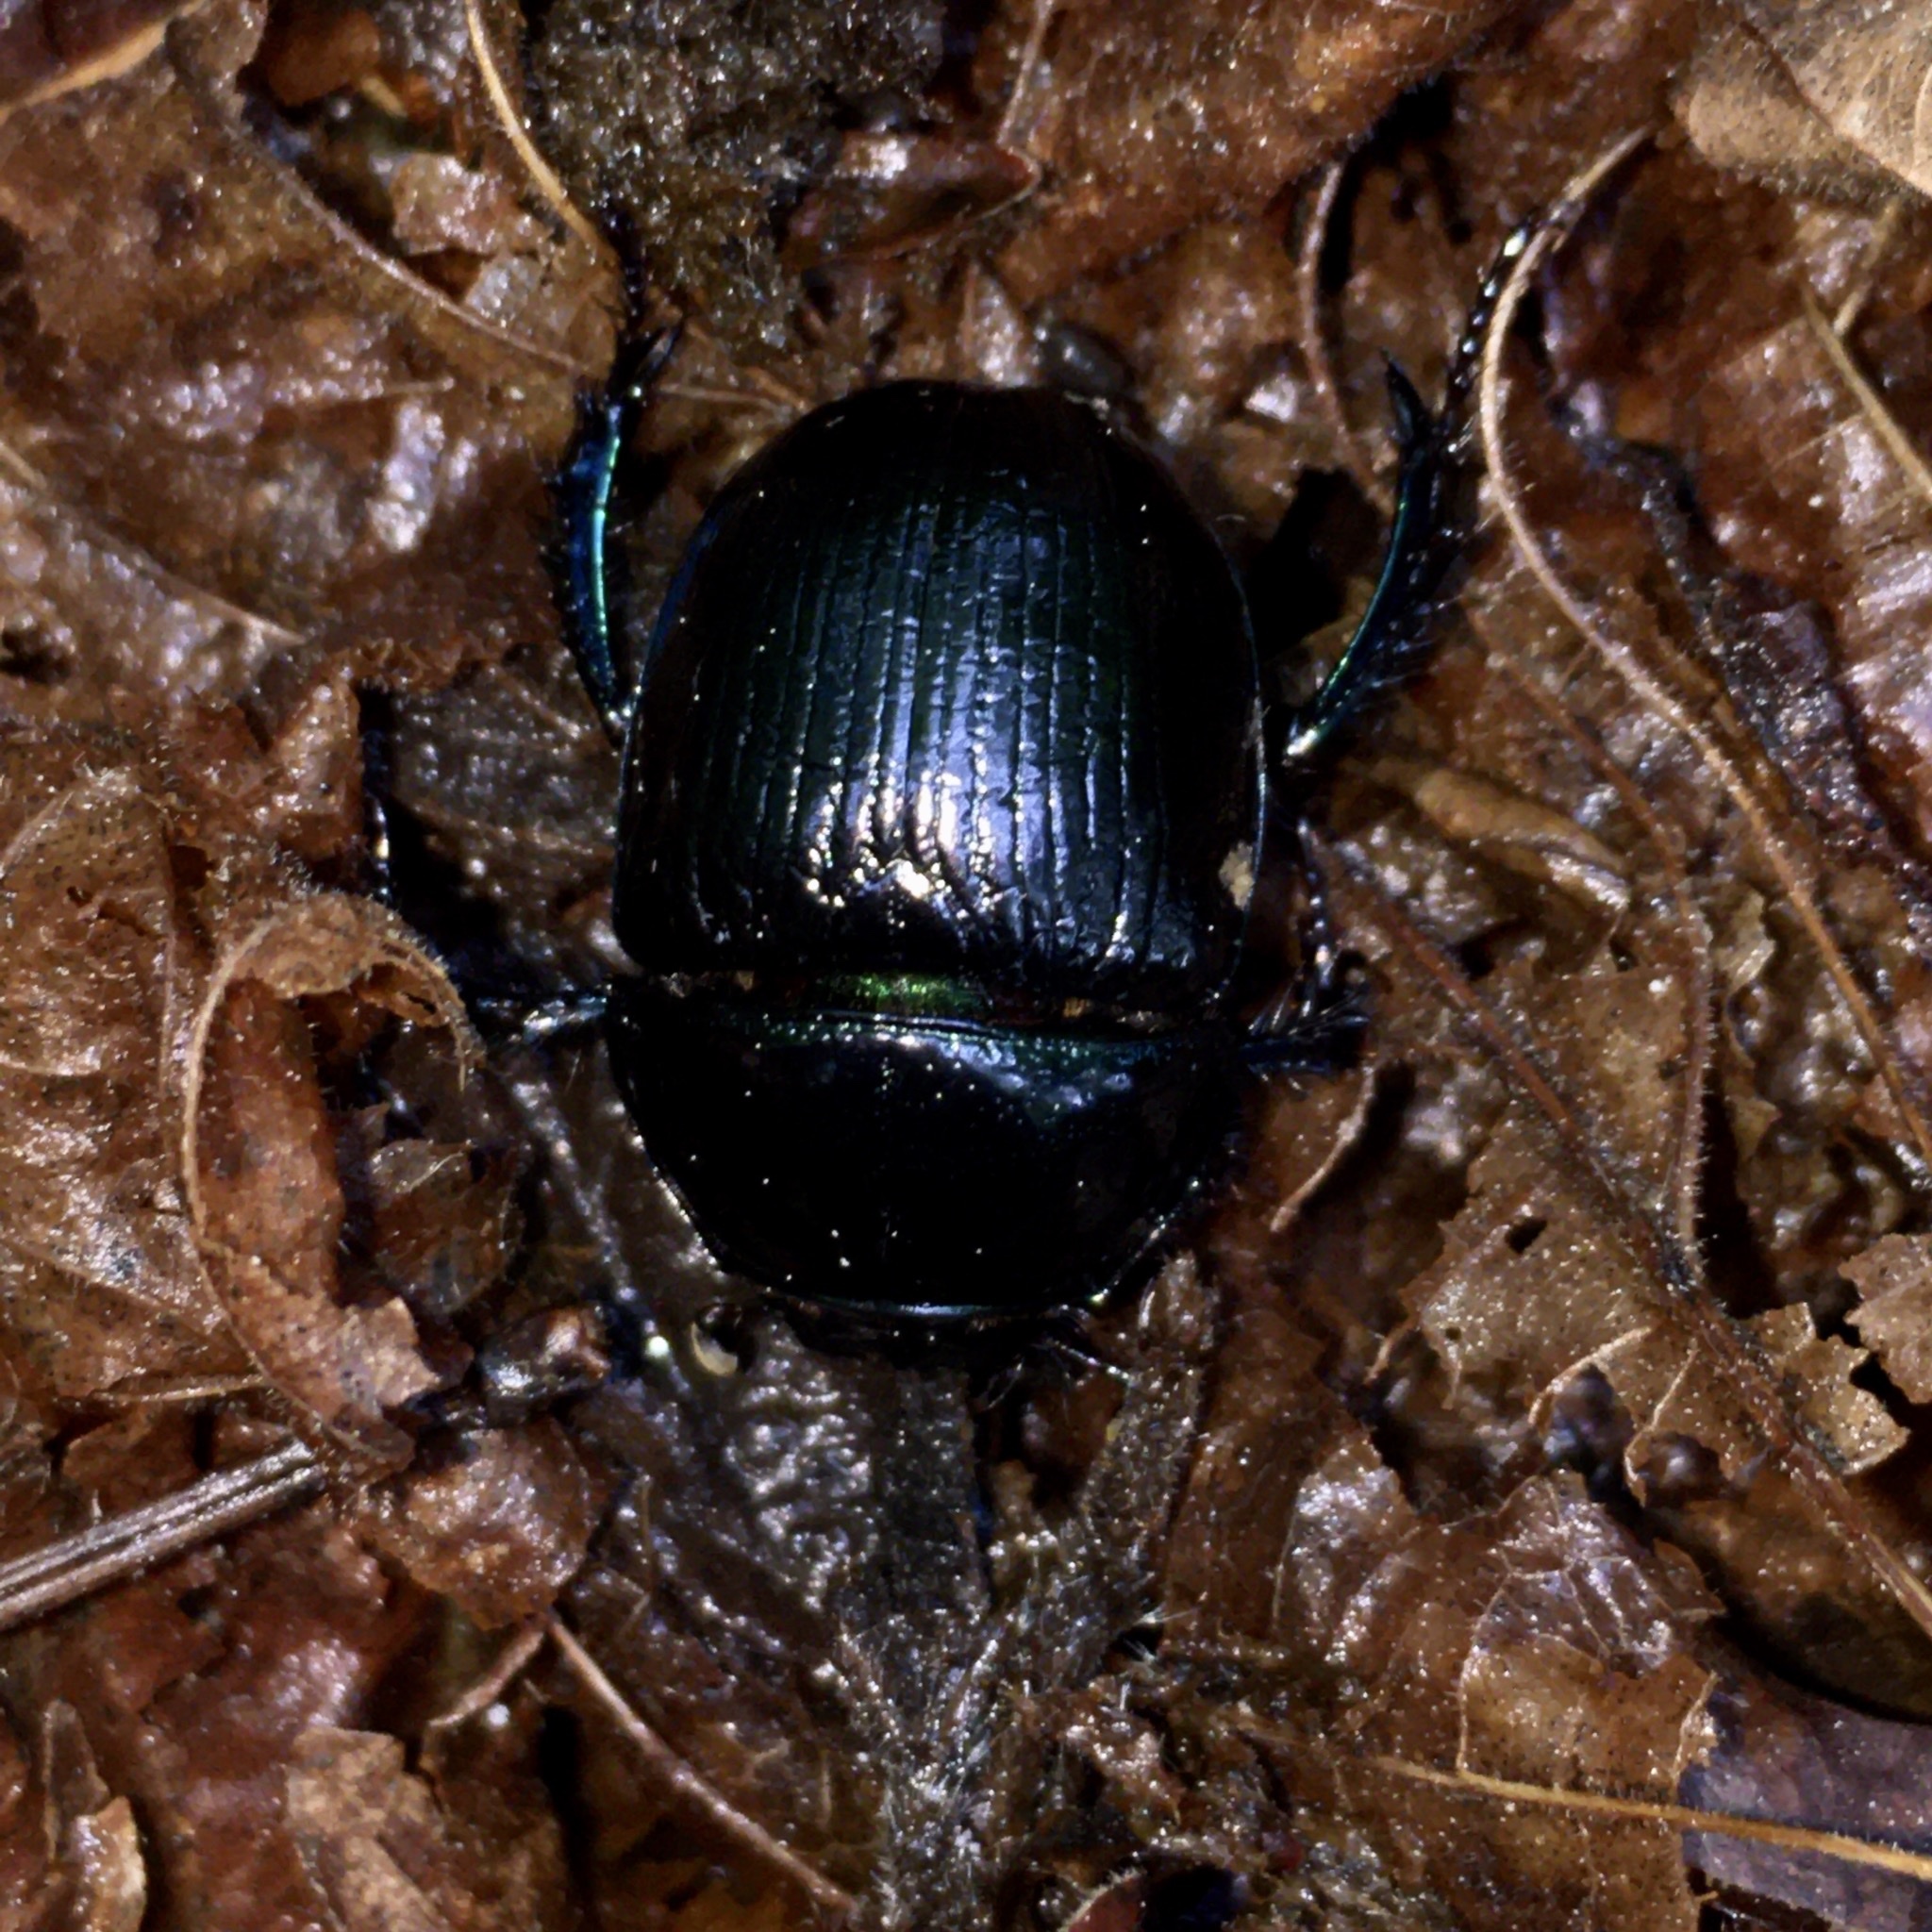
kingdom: Animalia
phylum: Arthropoda
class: Insecta
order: Coleoptera
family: Geotrupidae
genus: Anoplotrupes
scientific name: Anoplotrupes stercorosus
